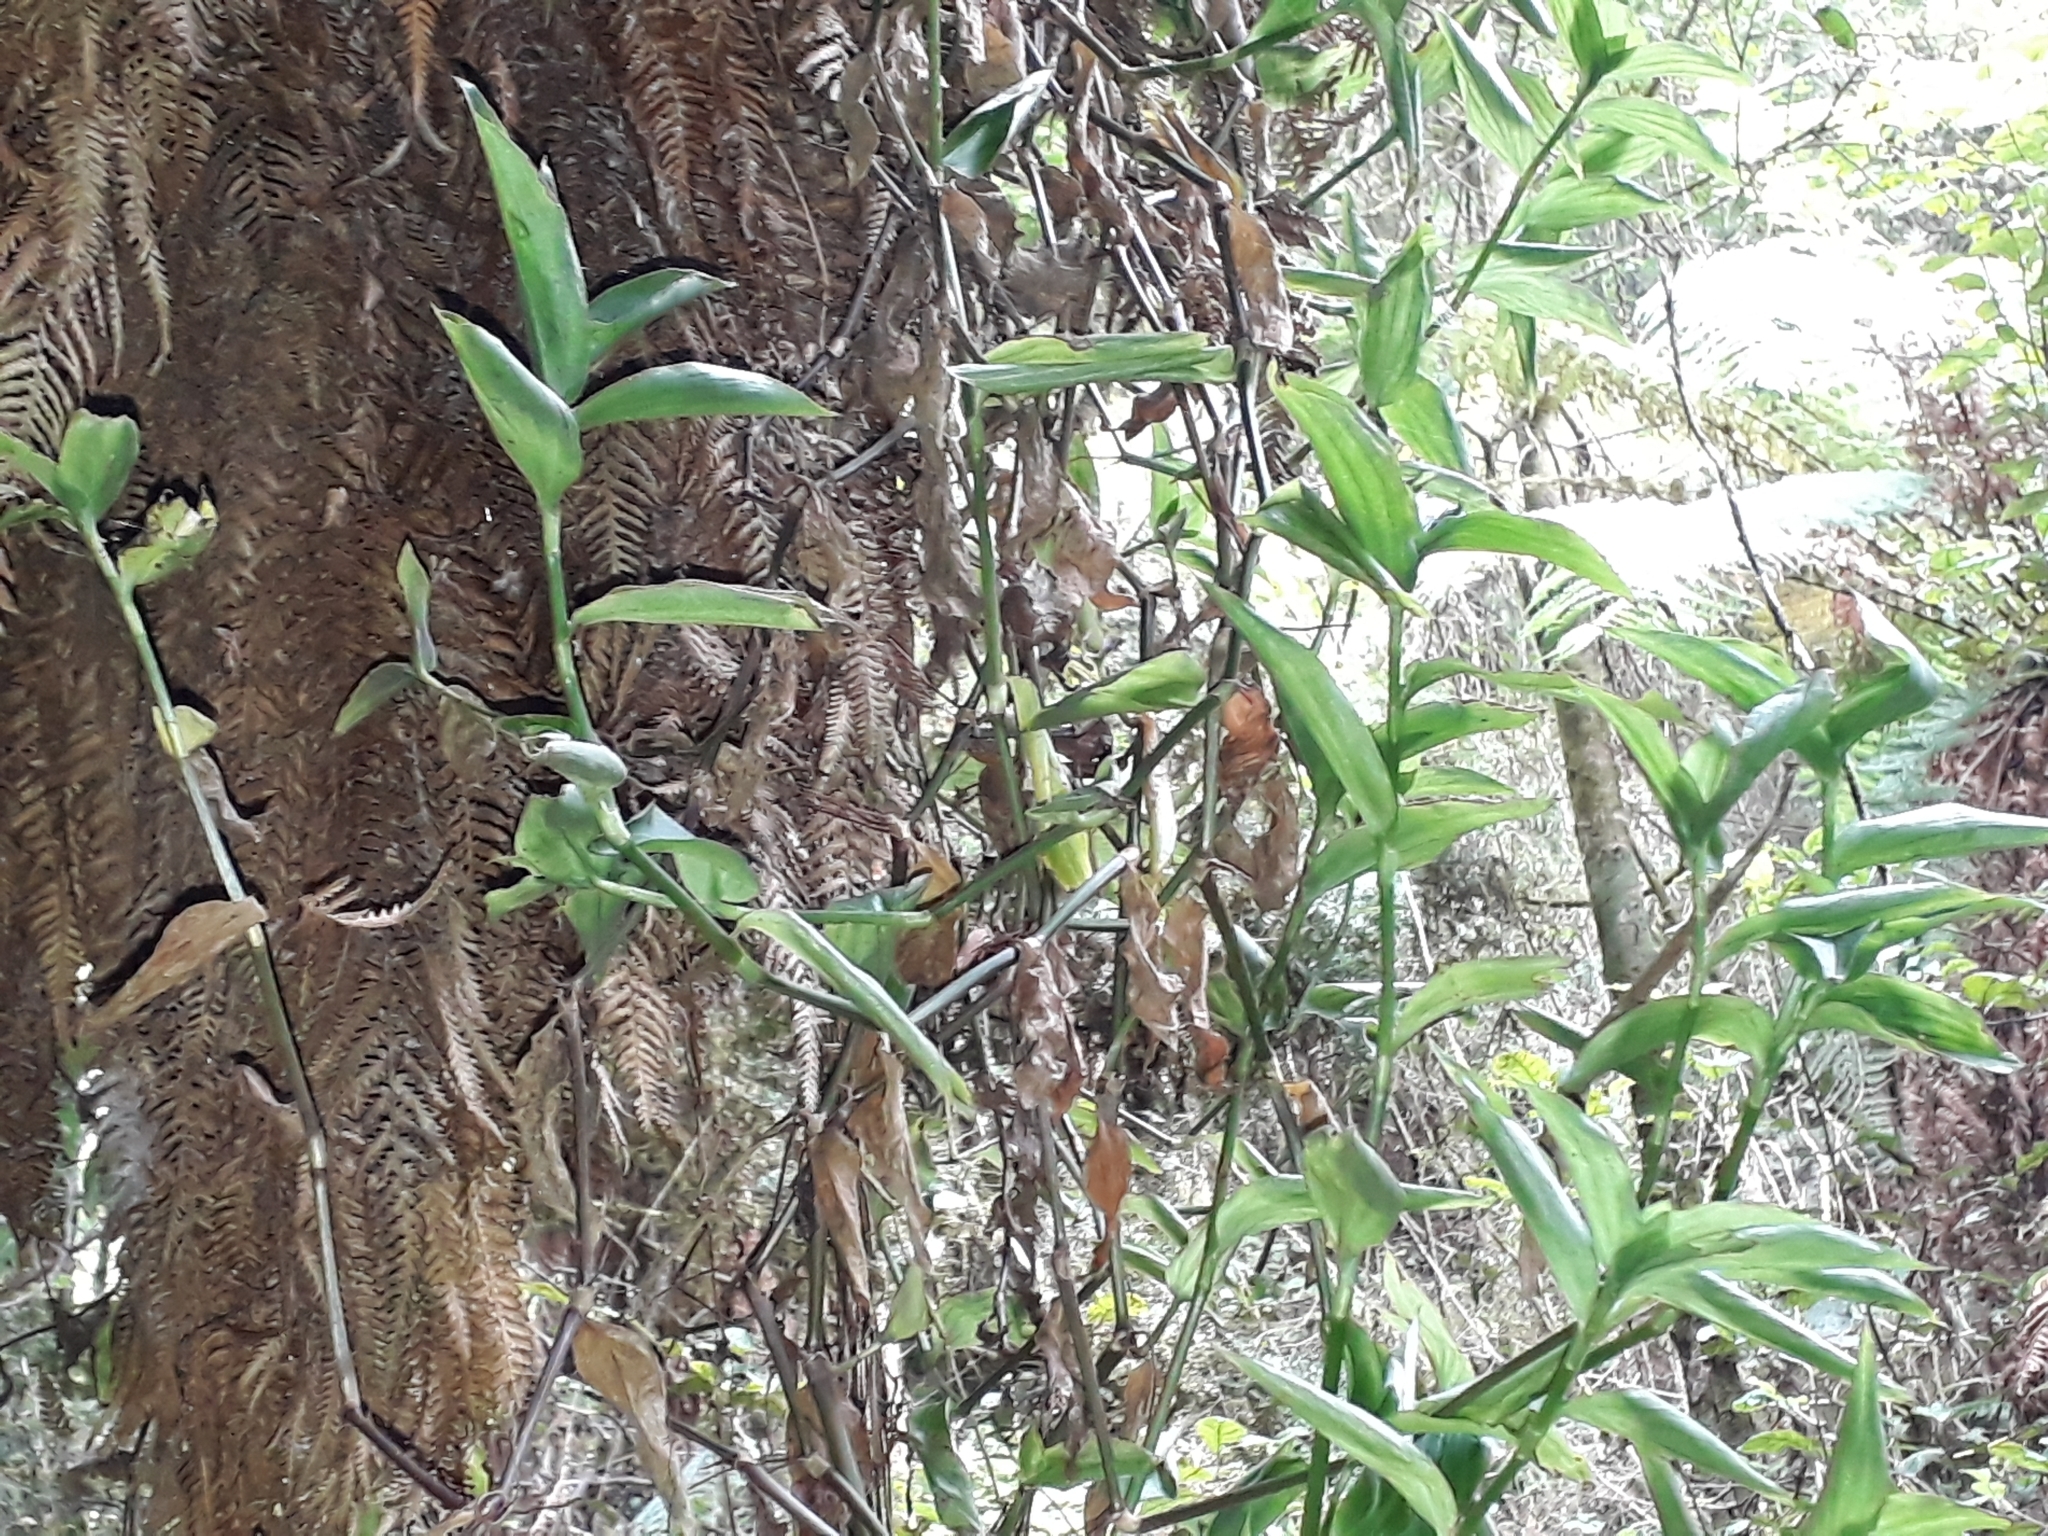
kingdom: Plantae
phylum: Tracheophyta
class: Liliopsida
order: Commelinales
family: Commelinaceae
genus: Tradescantia
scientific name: Tradescantia fluminensis
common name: Wandering-jew
